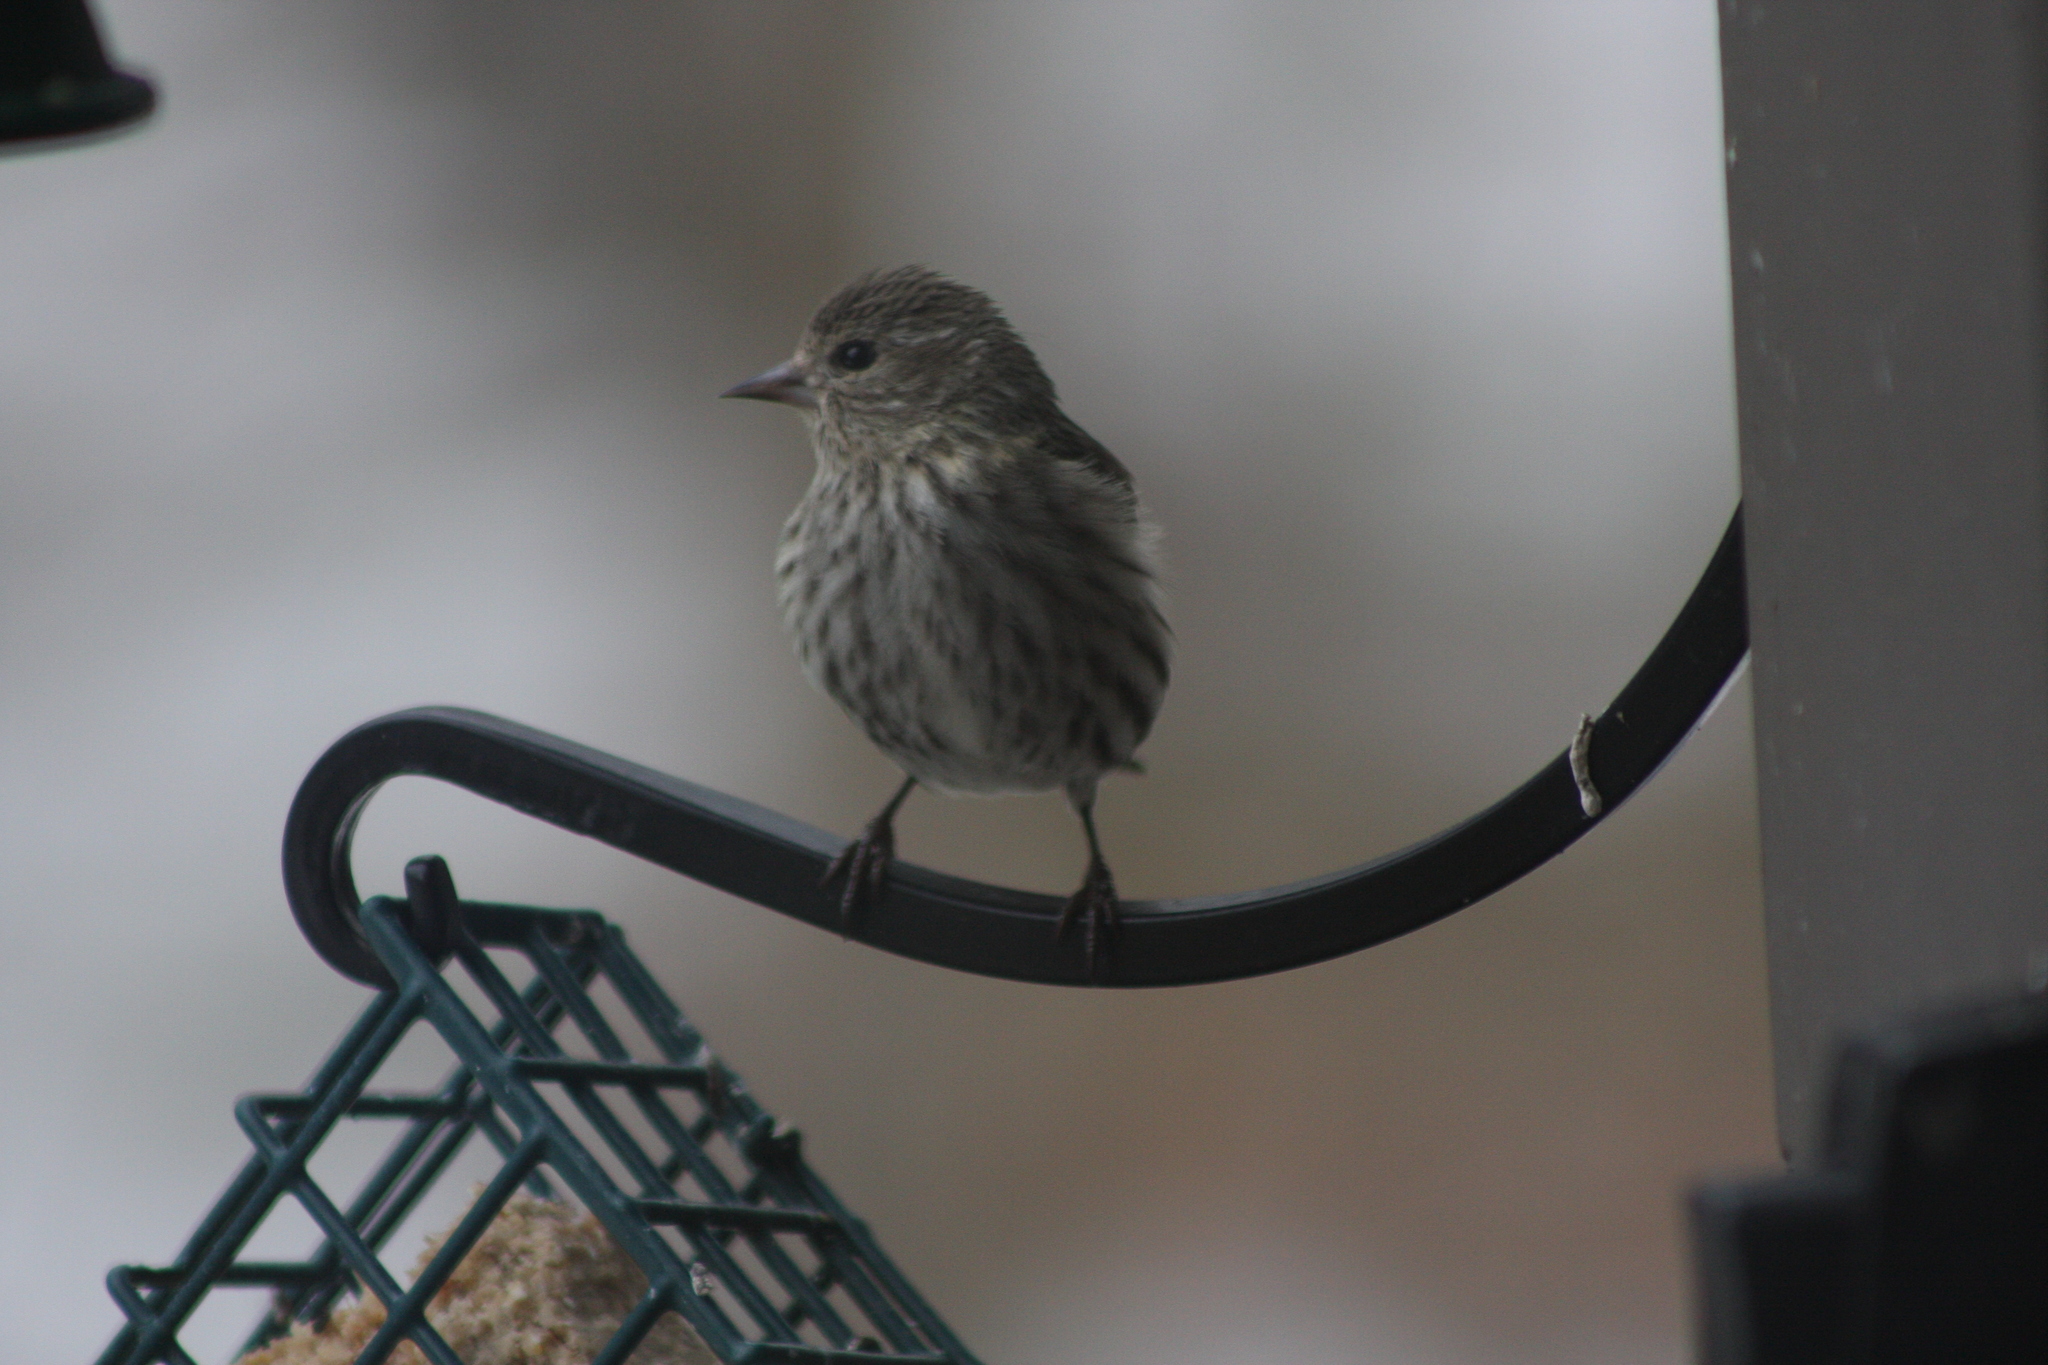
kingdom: Animalia
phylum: Chordata
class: Aves
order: Passeriformes
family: Fringillidae
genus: Spinus
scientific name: Spinus pinus
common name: Pine siskin
